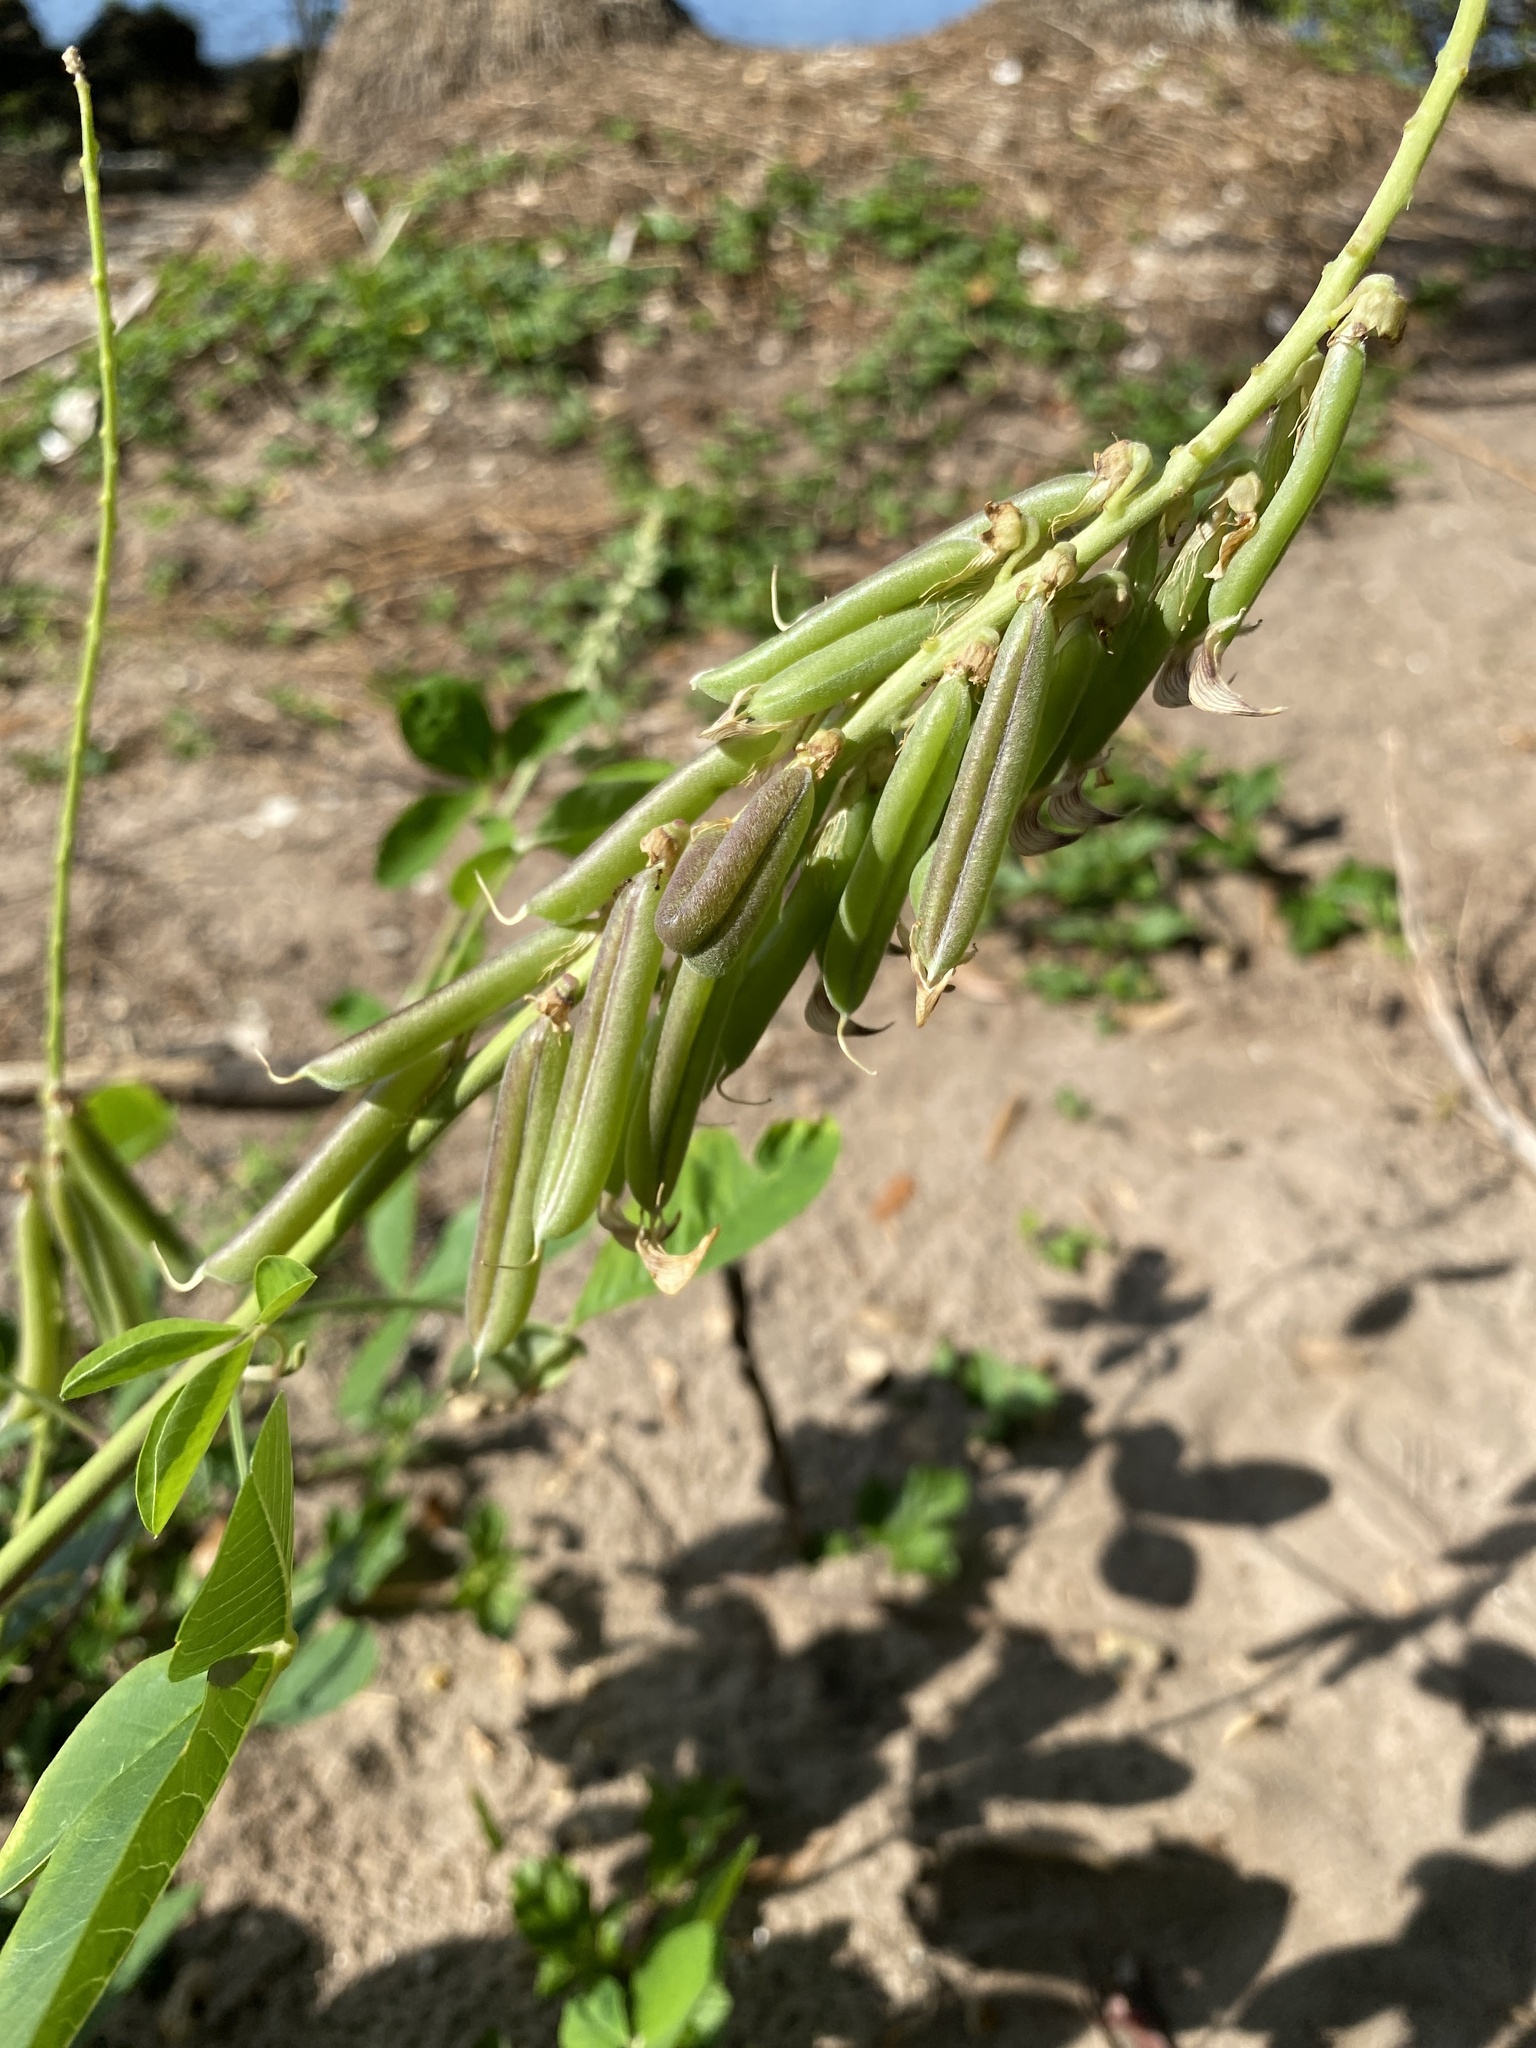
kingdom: Plantae
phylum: Tracheophyta
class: Magnoliopsida
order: Fabales
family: Fabaceae
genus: Crotalaria
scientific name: Crotalaria pallida
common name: Smooth rattlebox
